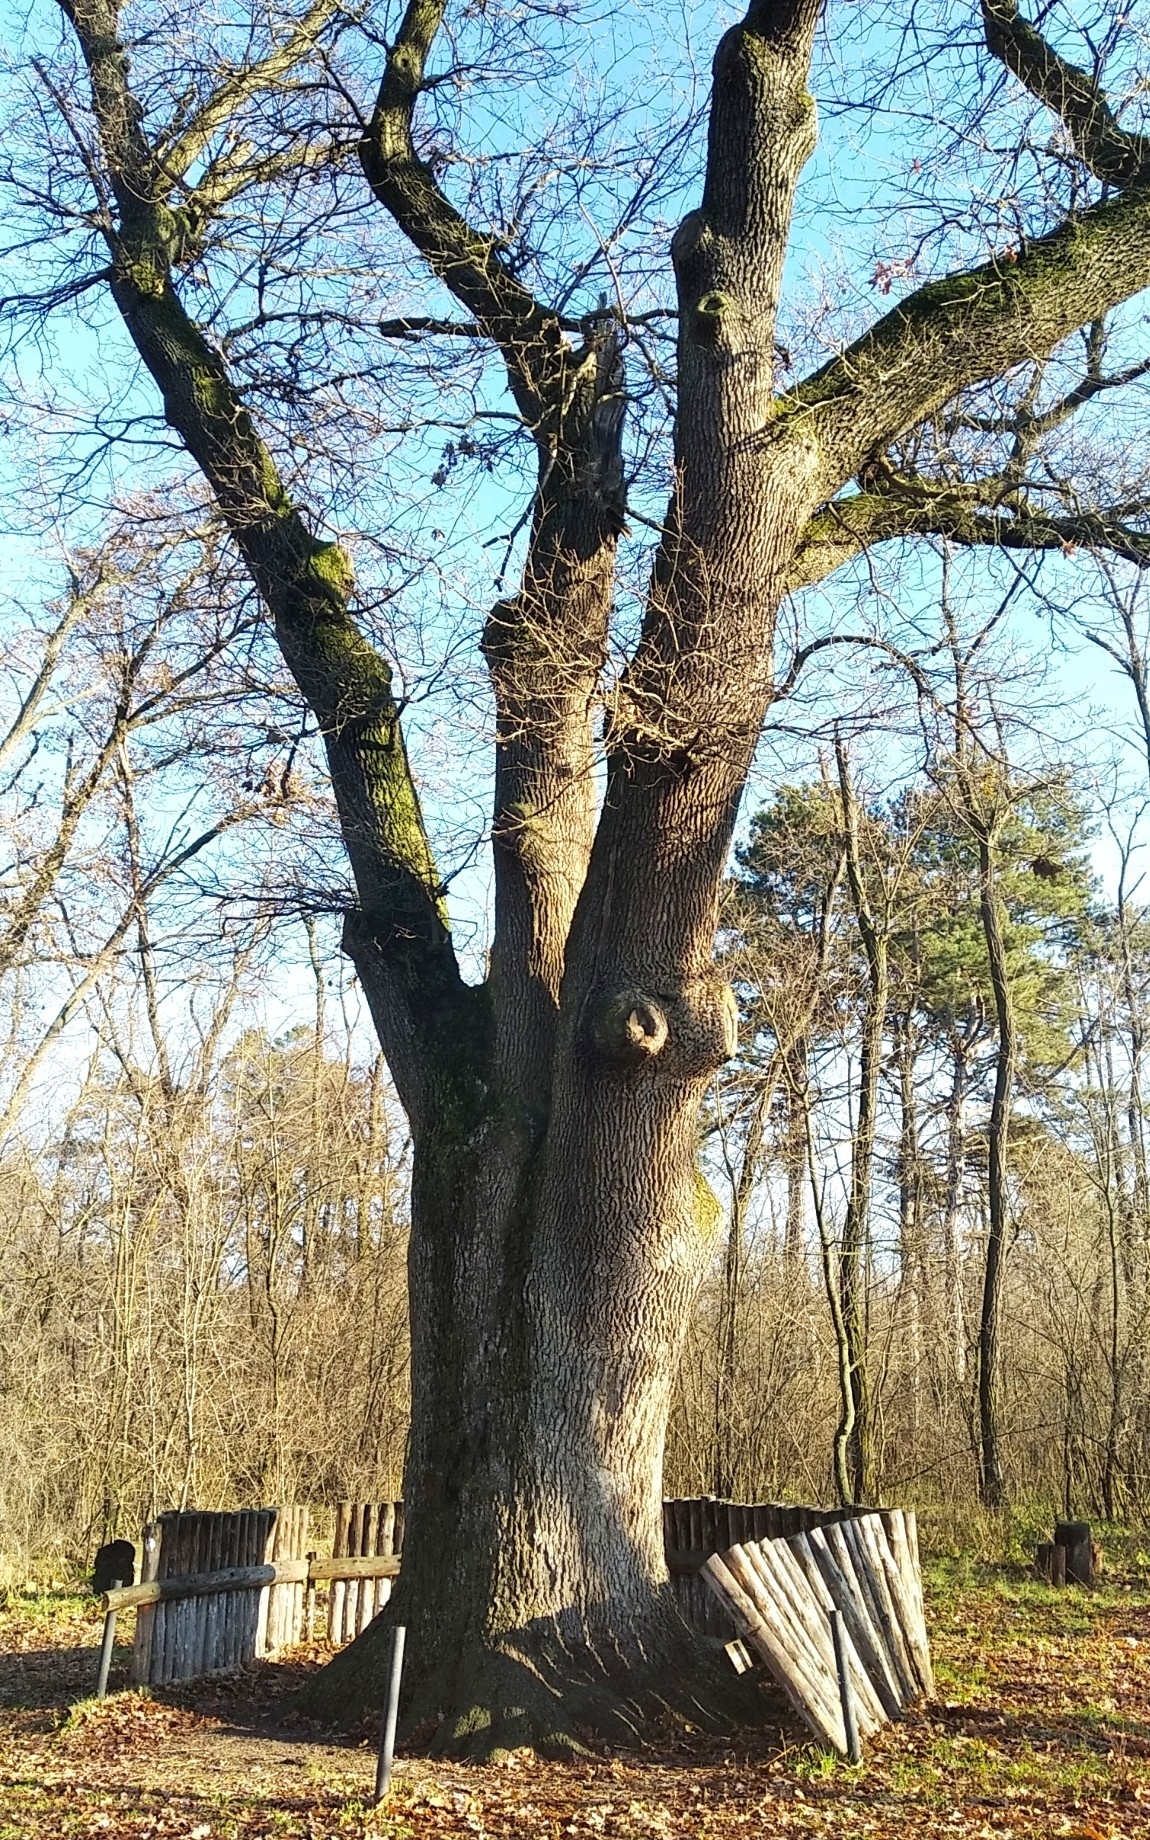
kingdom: Plantae
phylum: Tracheophyta
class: Magnoliopsida
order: Fagales
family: Fagaceae
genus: Quercus
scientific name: Quercus robur
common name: Pedunculate oak
